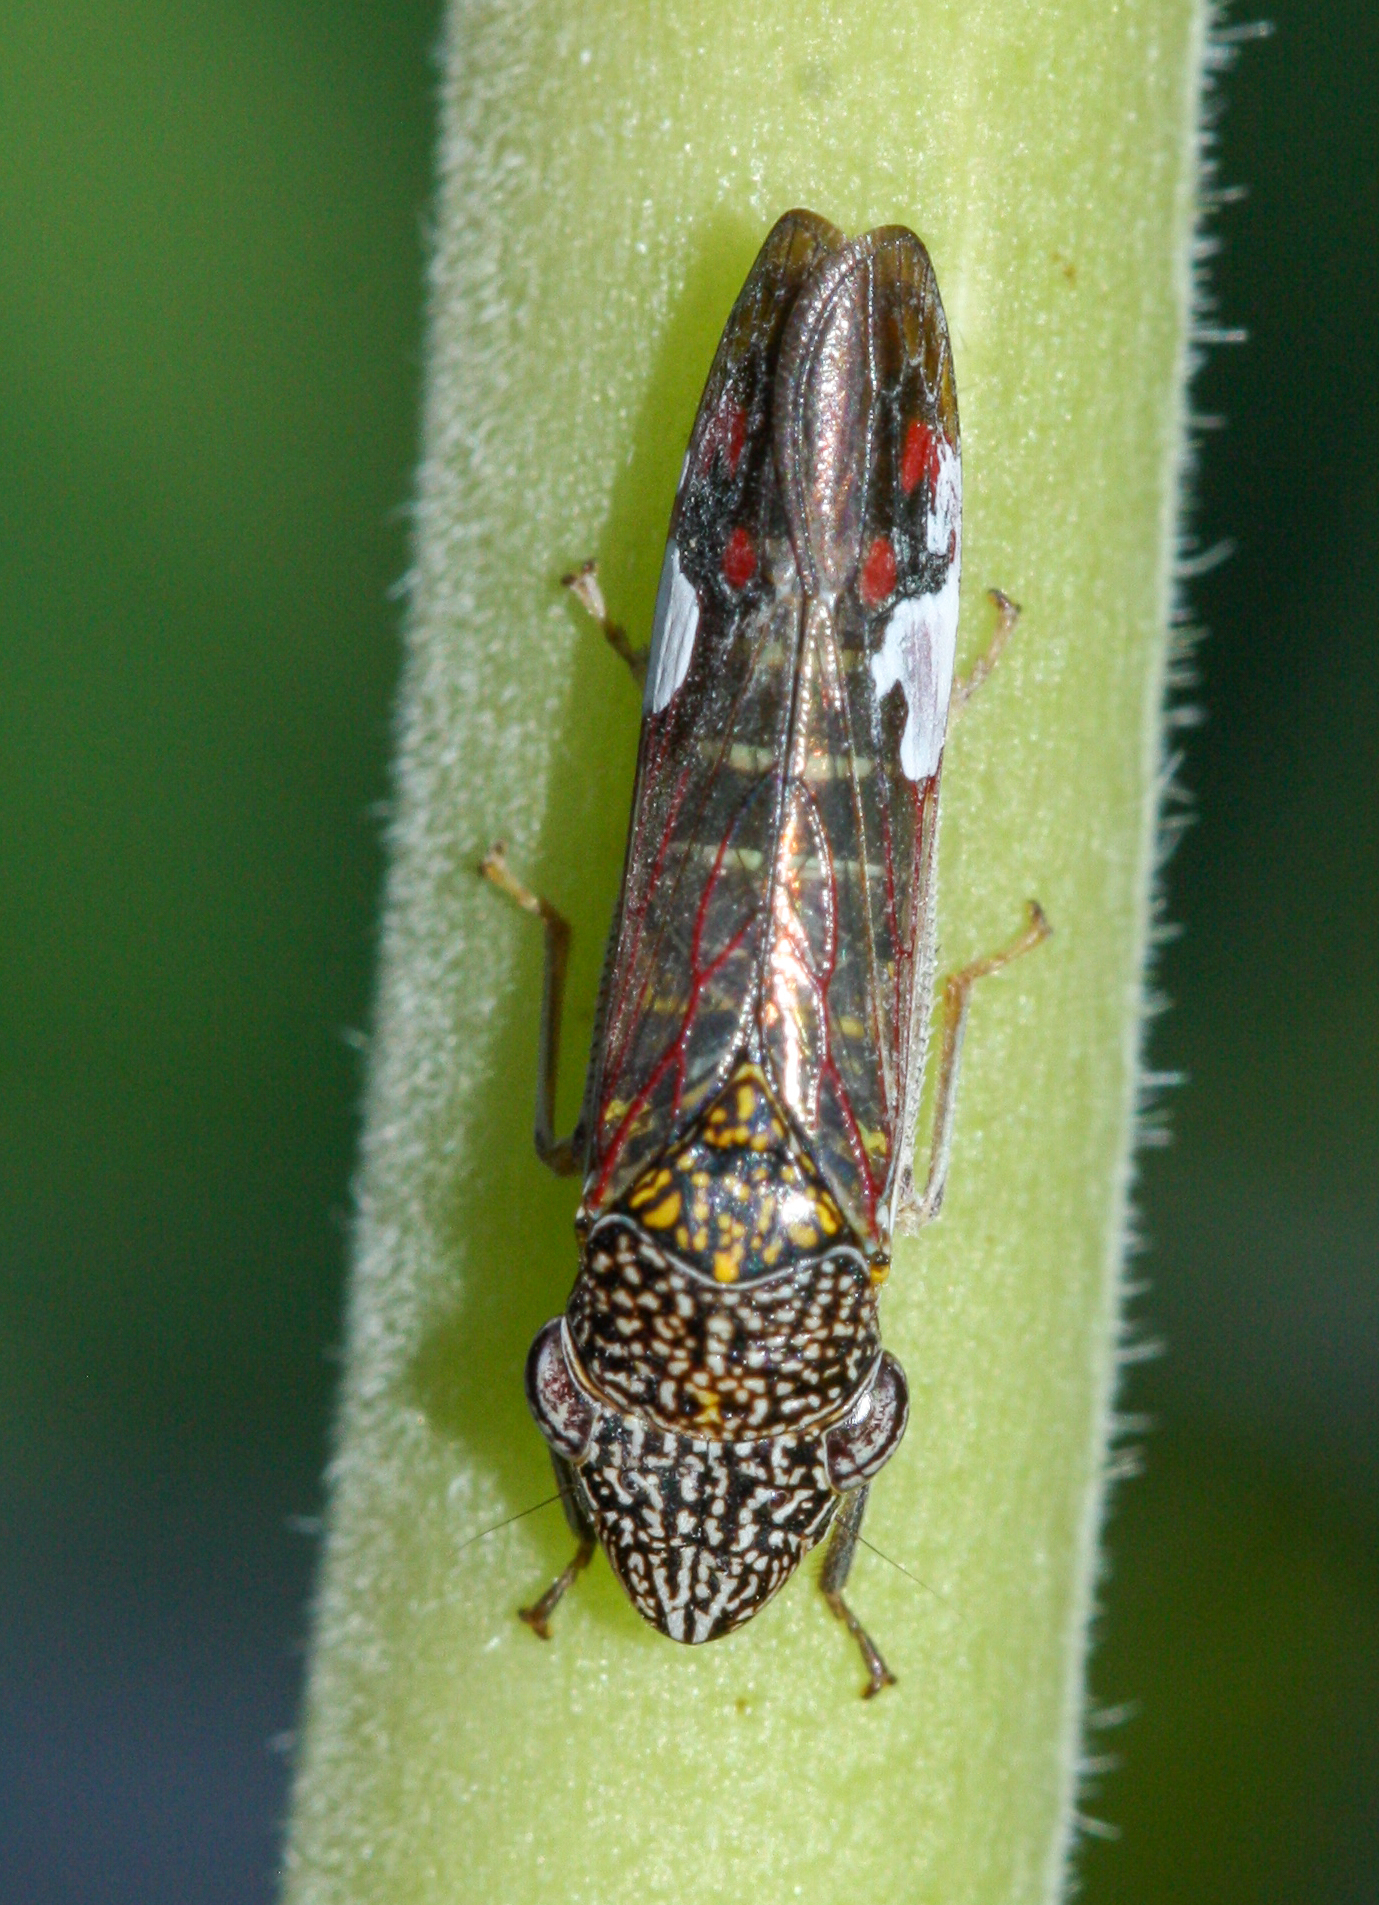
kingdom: Animalia
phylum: Arthropoda
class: Insecta
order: Hemiptera
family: Cicadellidae
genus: Homalodisca
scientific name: Homalodisca liturata
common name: Lacertate sharpshooter
